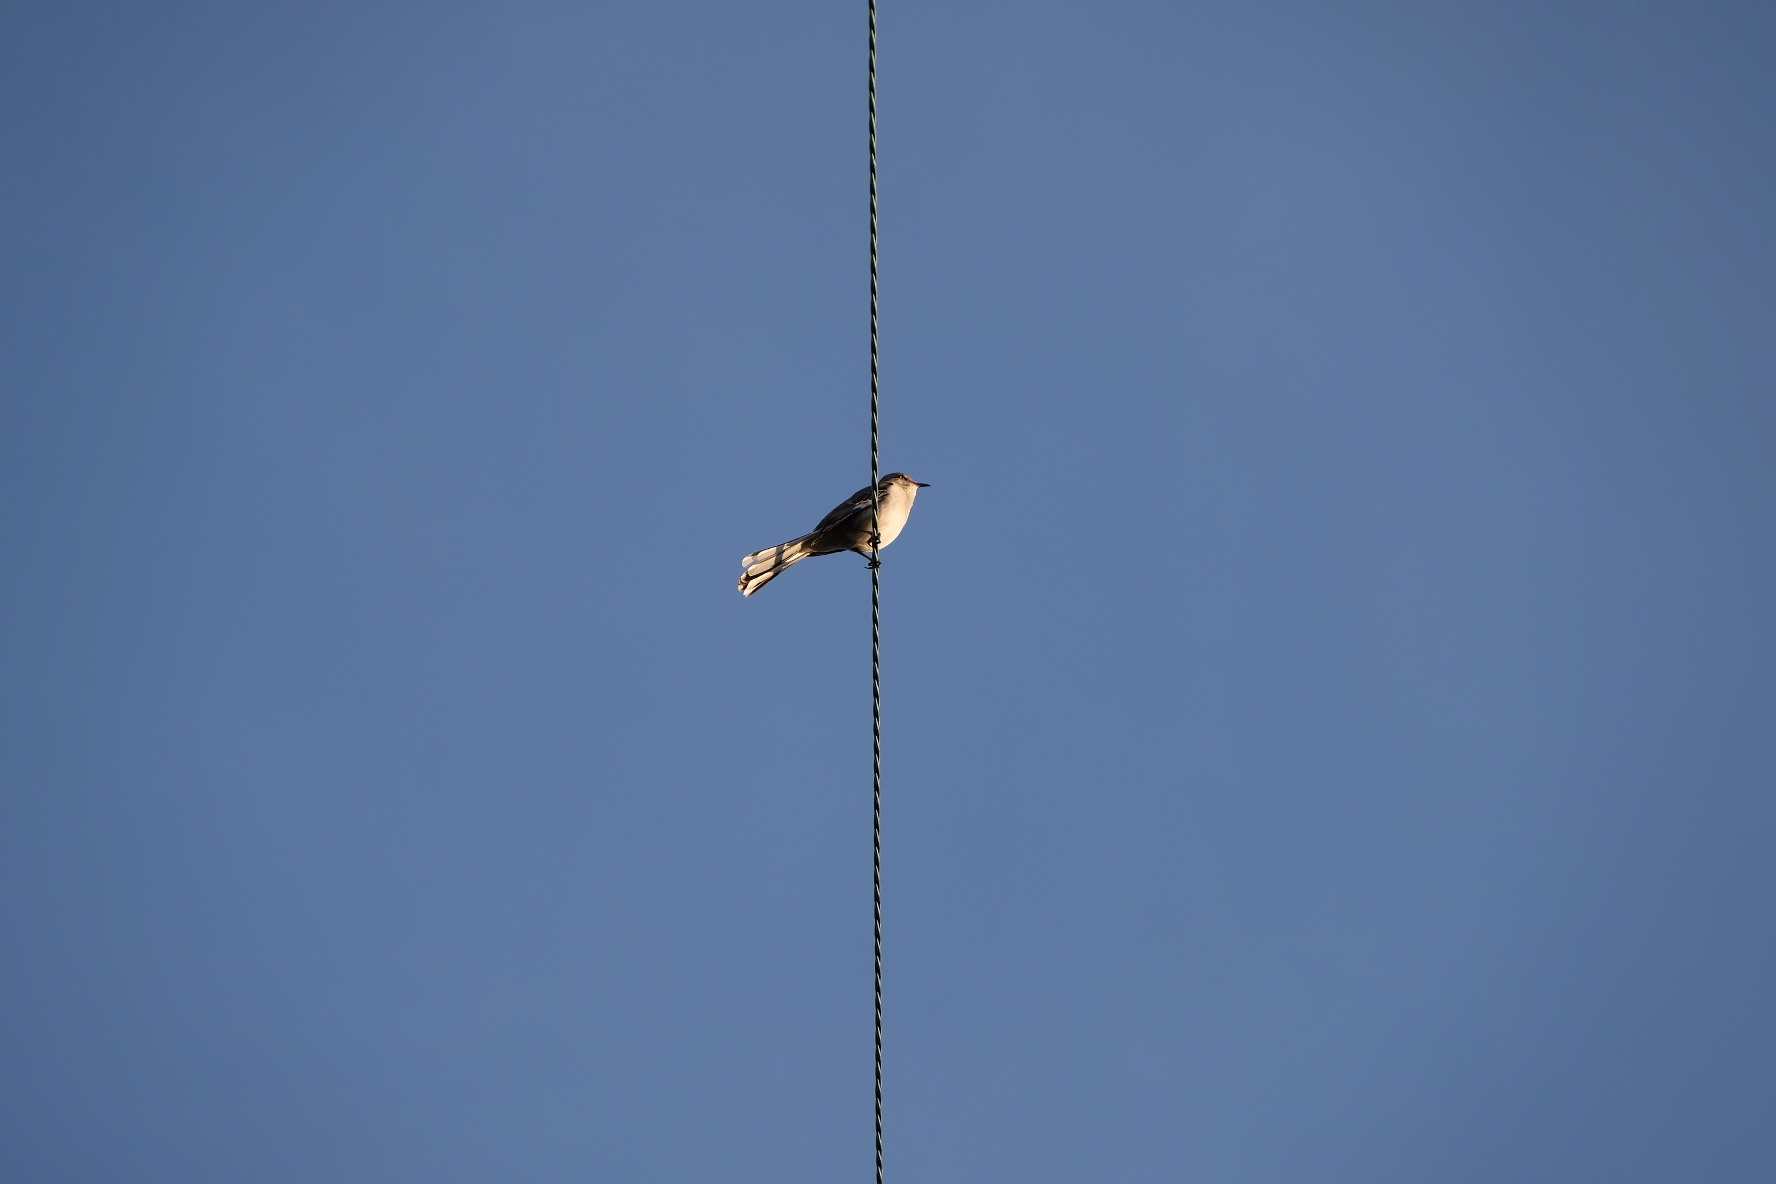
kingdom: Animalia
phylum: Chordata
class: Aves
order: Passeriformes
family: Mimidae
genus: Mimus
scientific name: Mimus polyglottos
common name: Northern mockingbird
